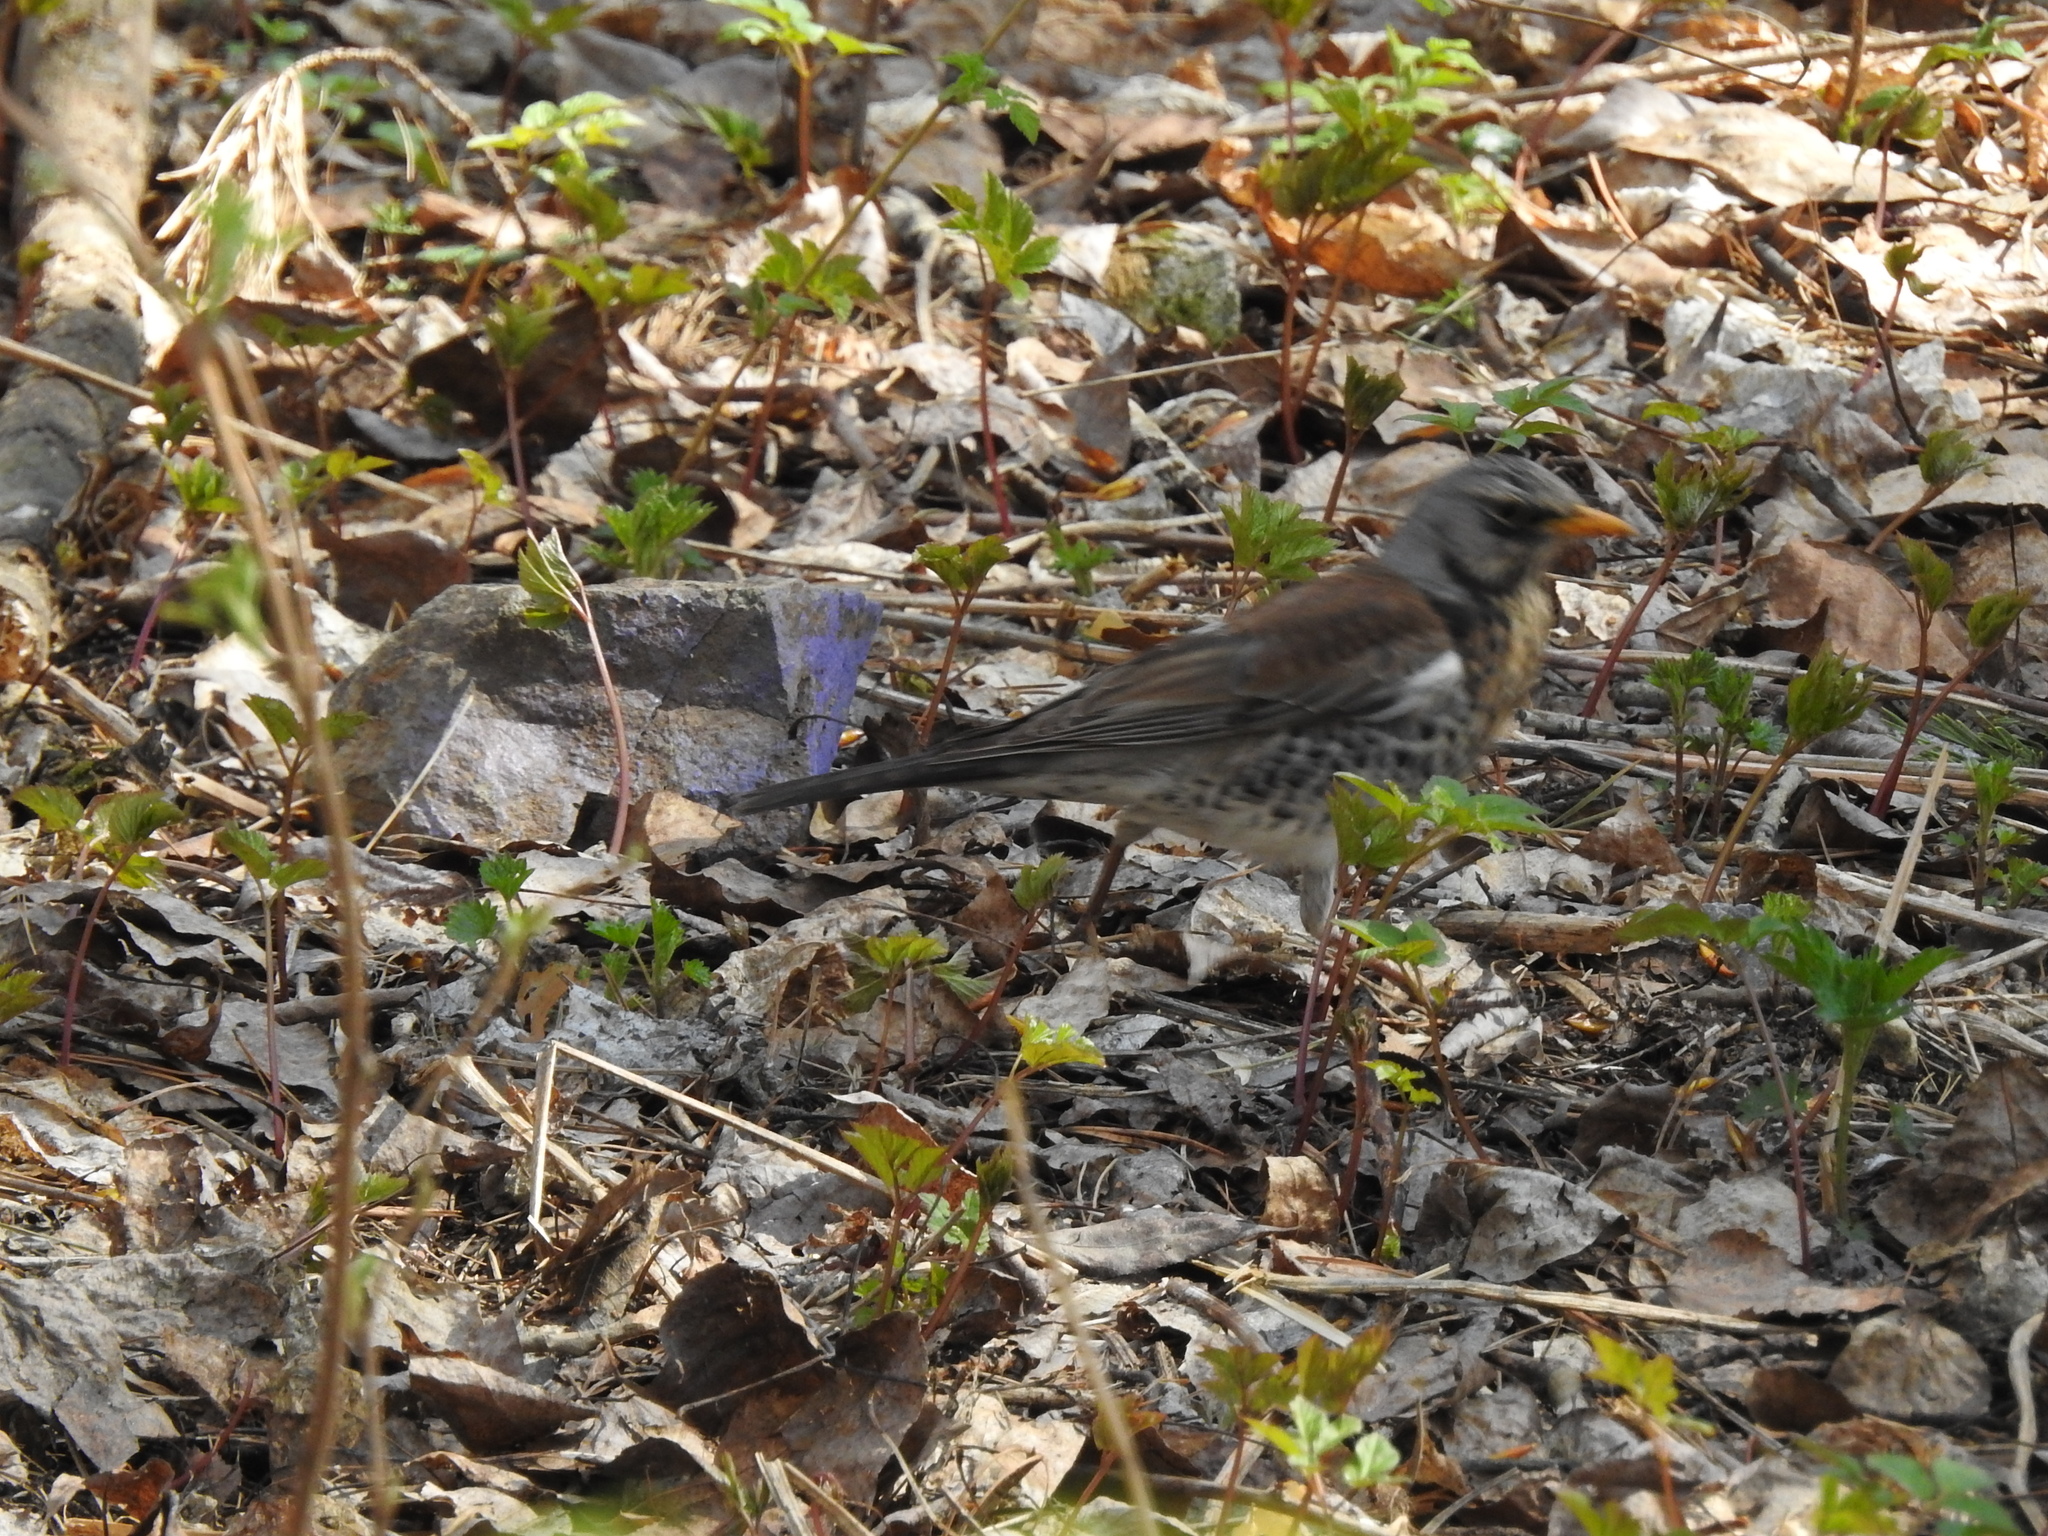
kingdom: Animalia
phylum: Chordata
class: Aves
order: Passeriformes
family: Turdidae
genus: Turdus
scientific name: Turdus pilaris
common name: Fieldfare
